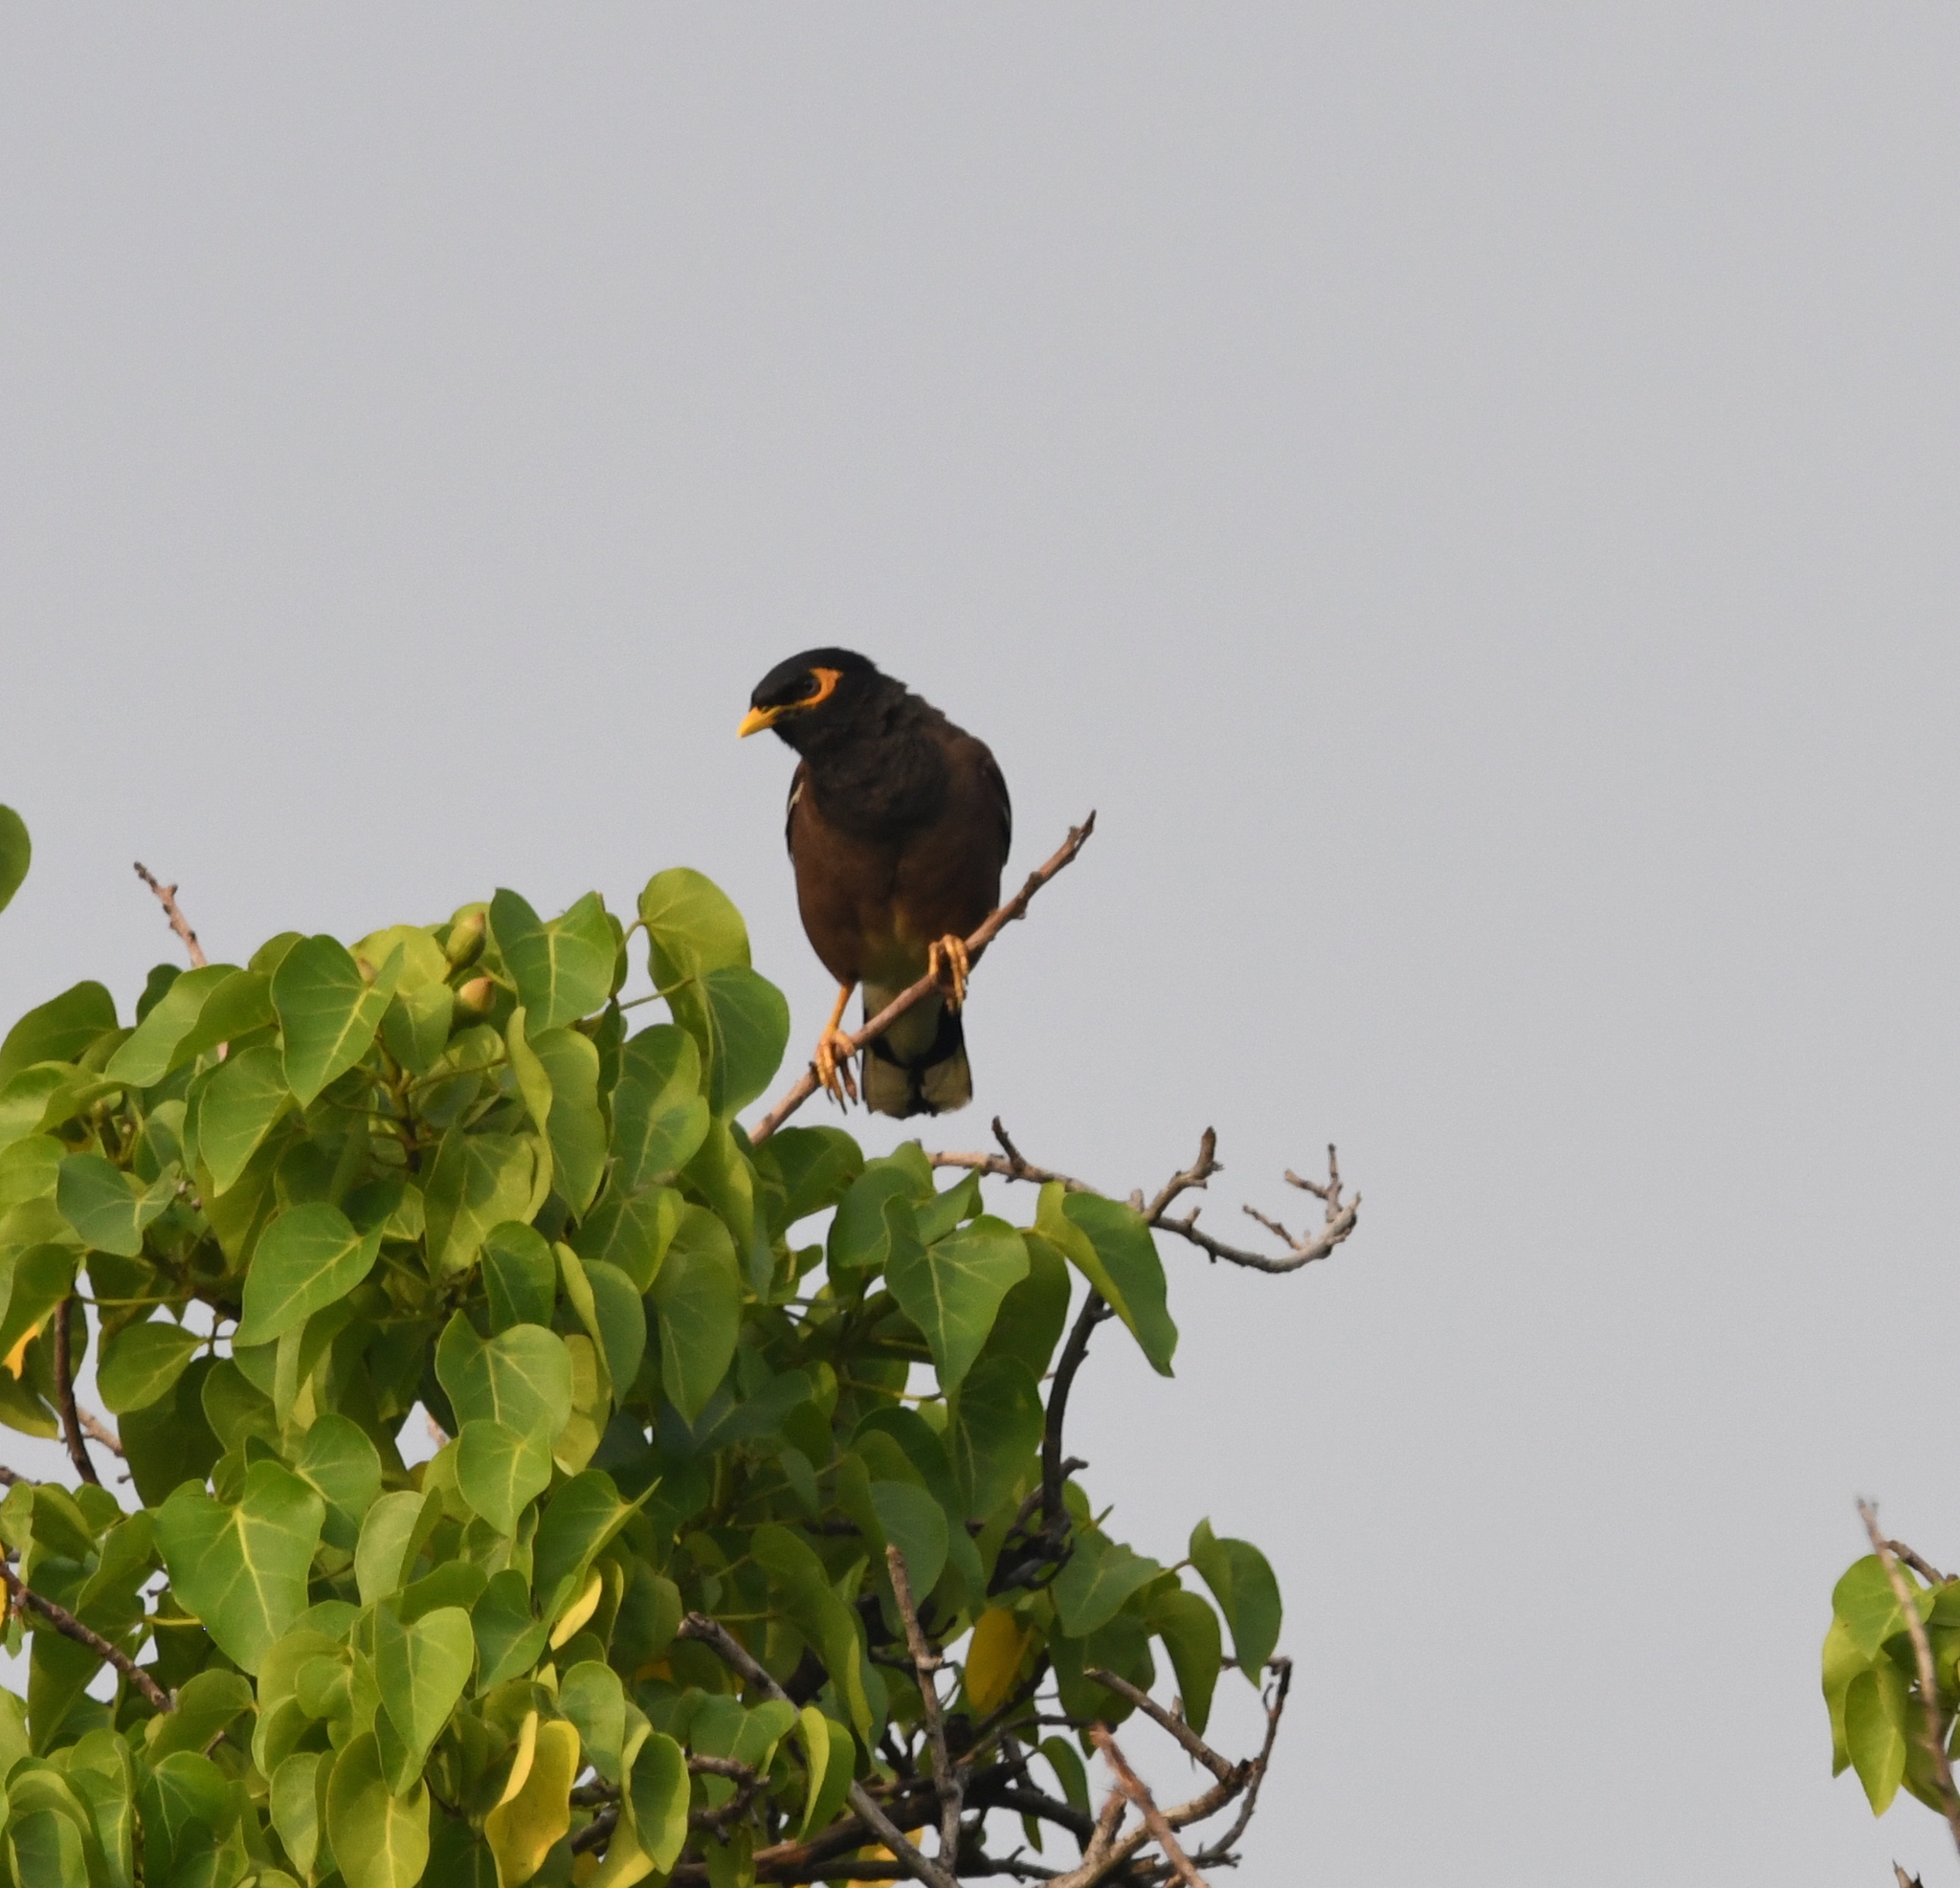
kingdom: Animalia
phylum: Chordata
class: Aves
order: Passeriformes
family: Sturnidae
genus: Acridotheres
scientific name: Acridotheres tristis
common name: Common myna
